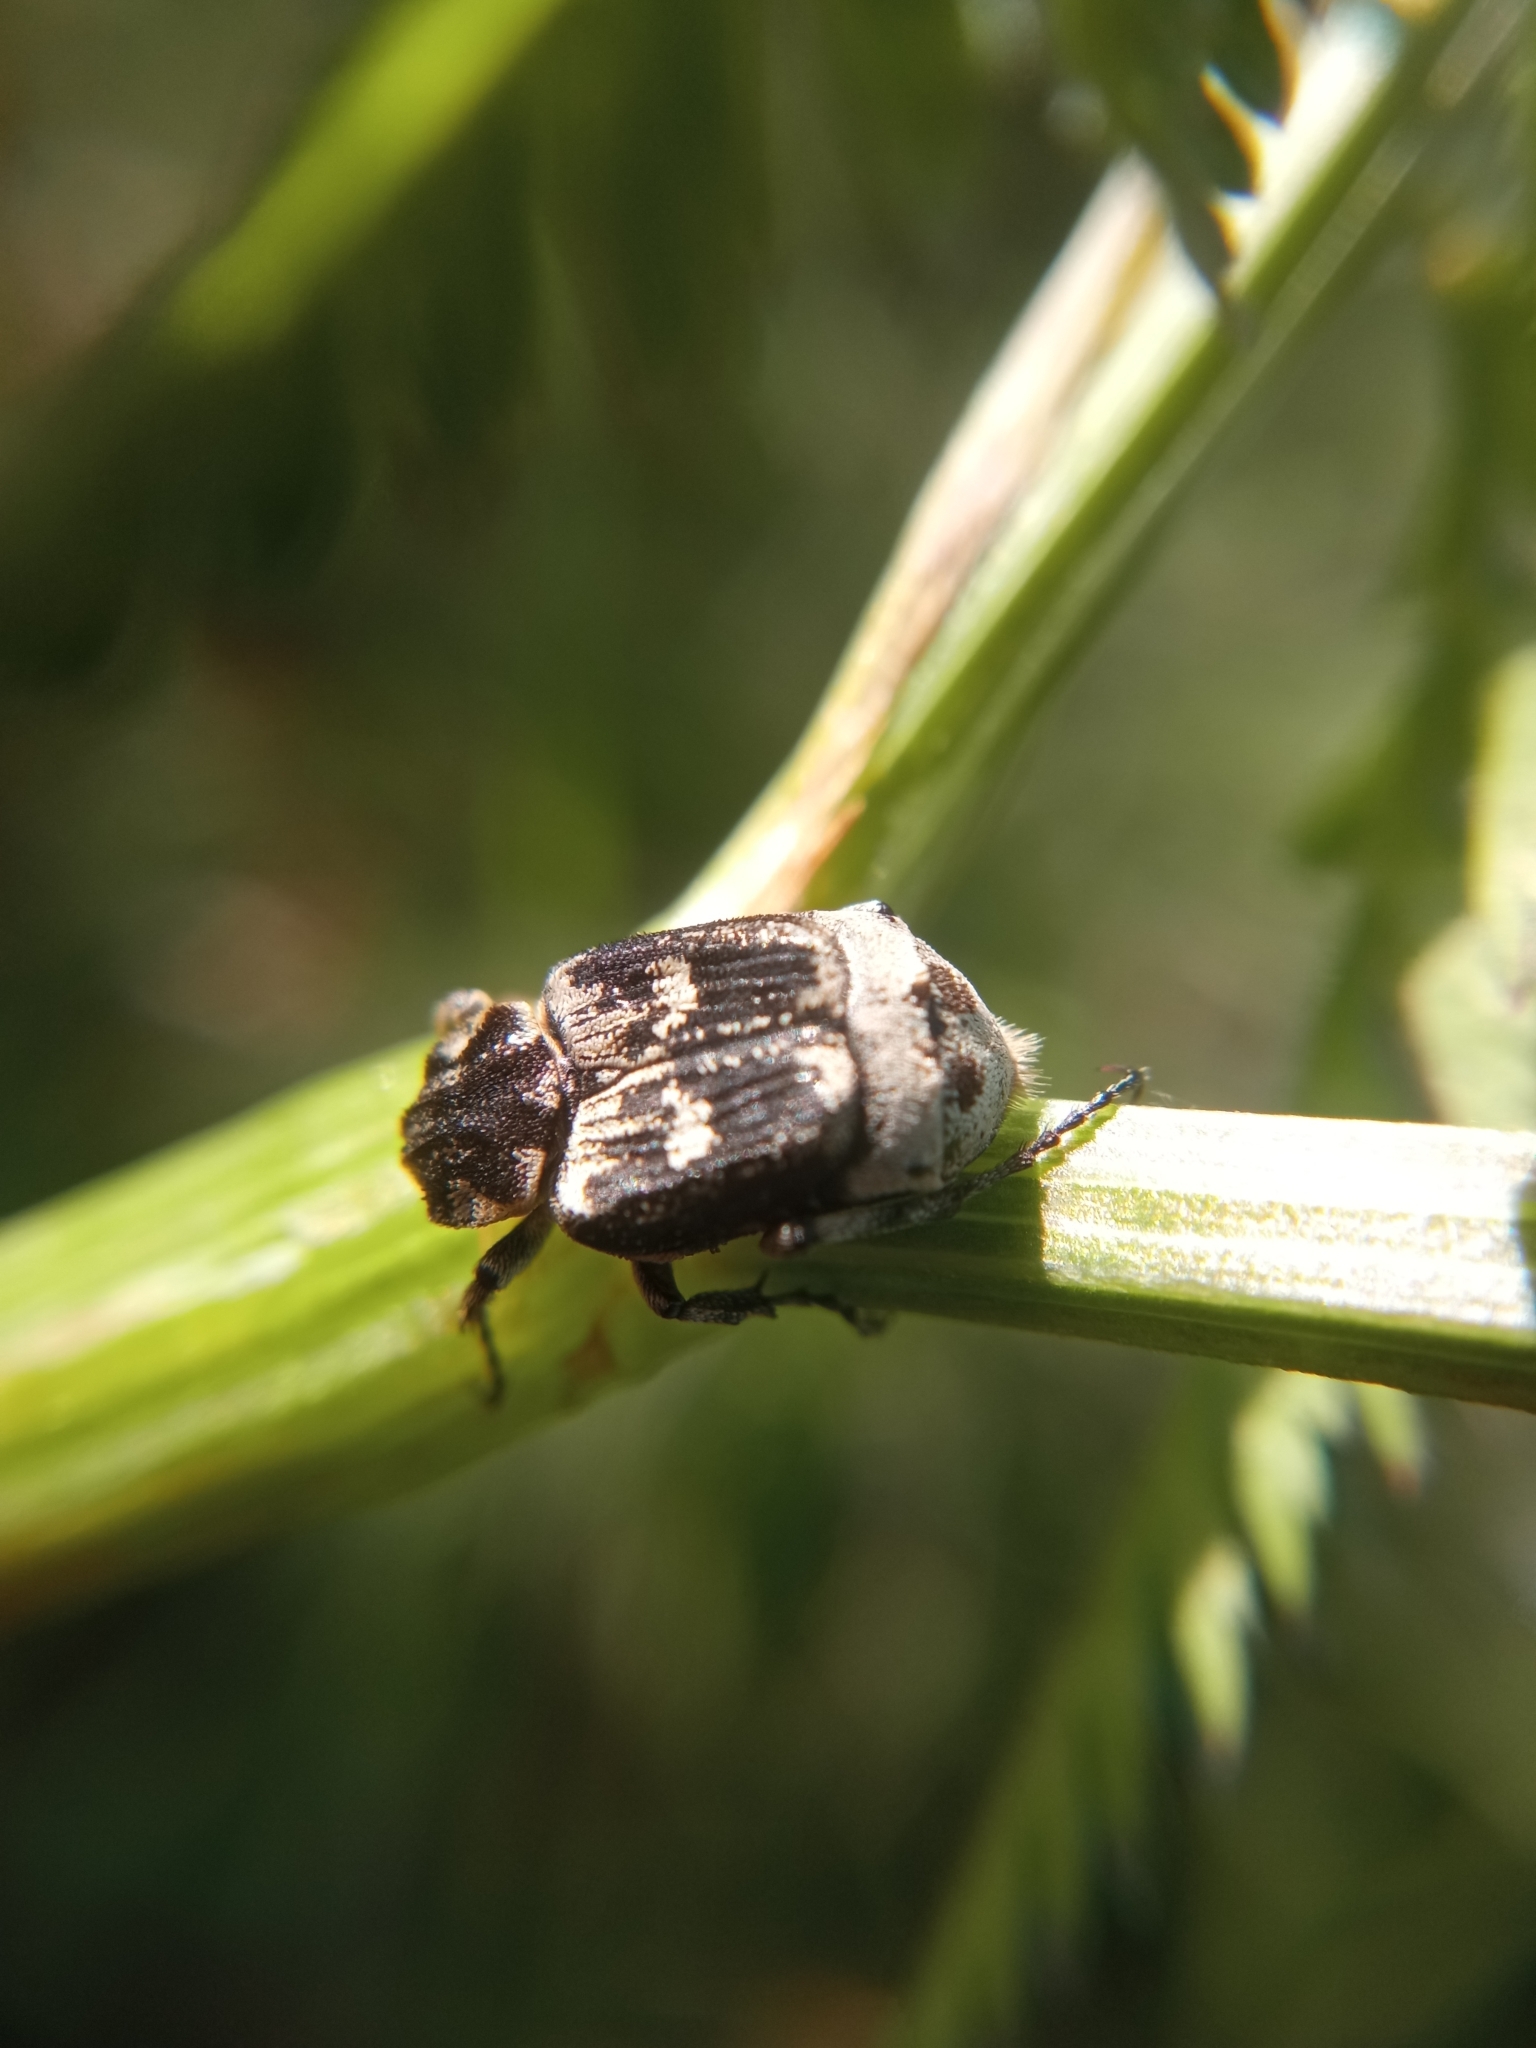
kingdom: Animalia
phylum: Arthropoda
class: Insecta
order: Coleoptera
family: Scarabaeidae
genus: Valgus
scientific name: Valgus hemipterus
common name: Bug flower chafer
